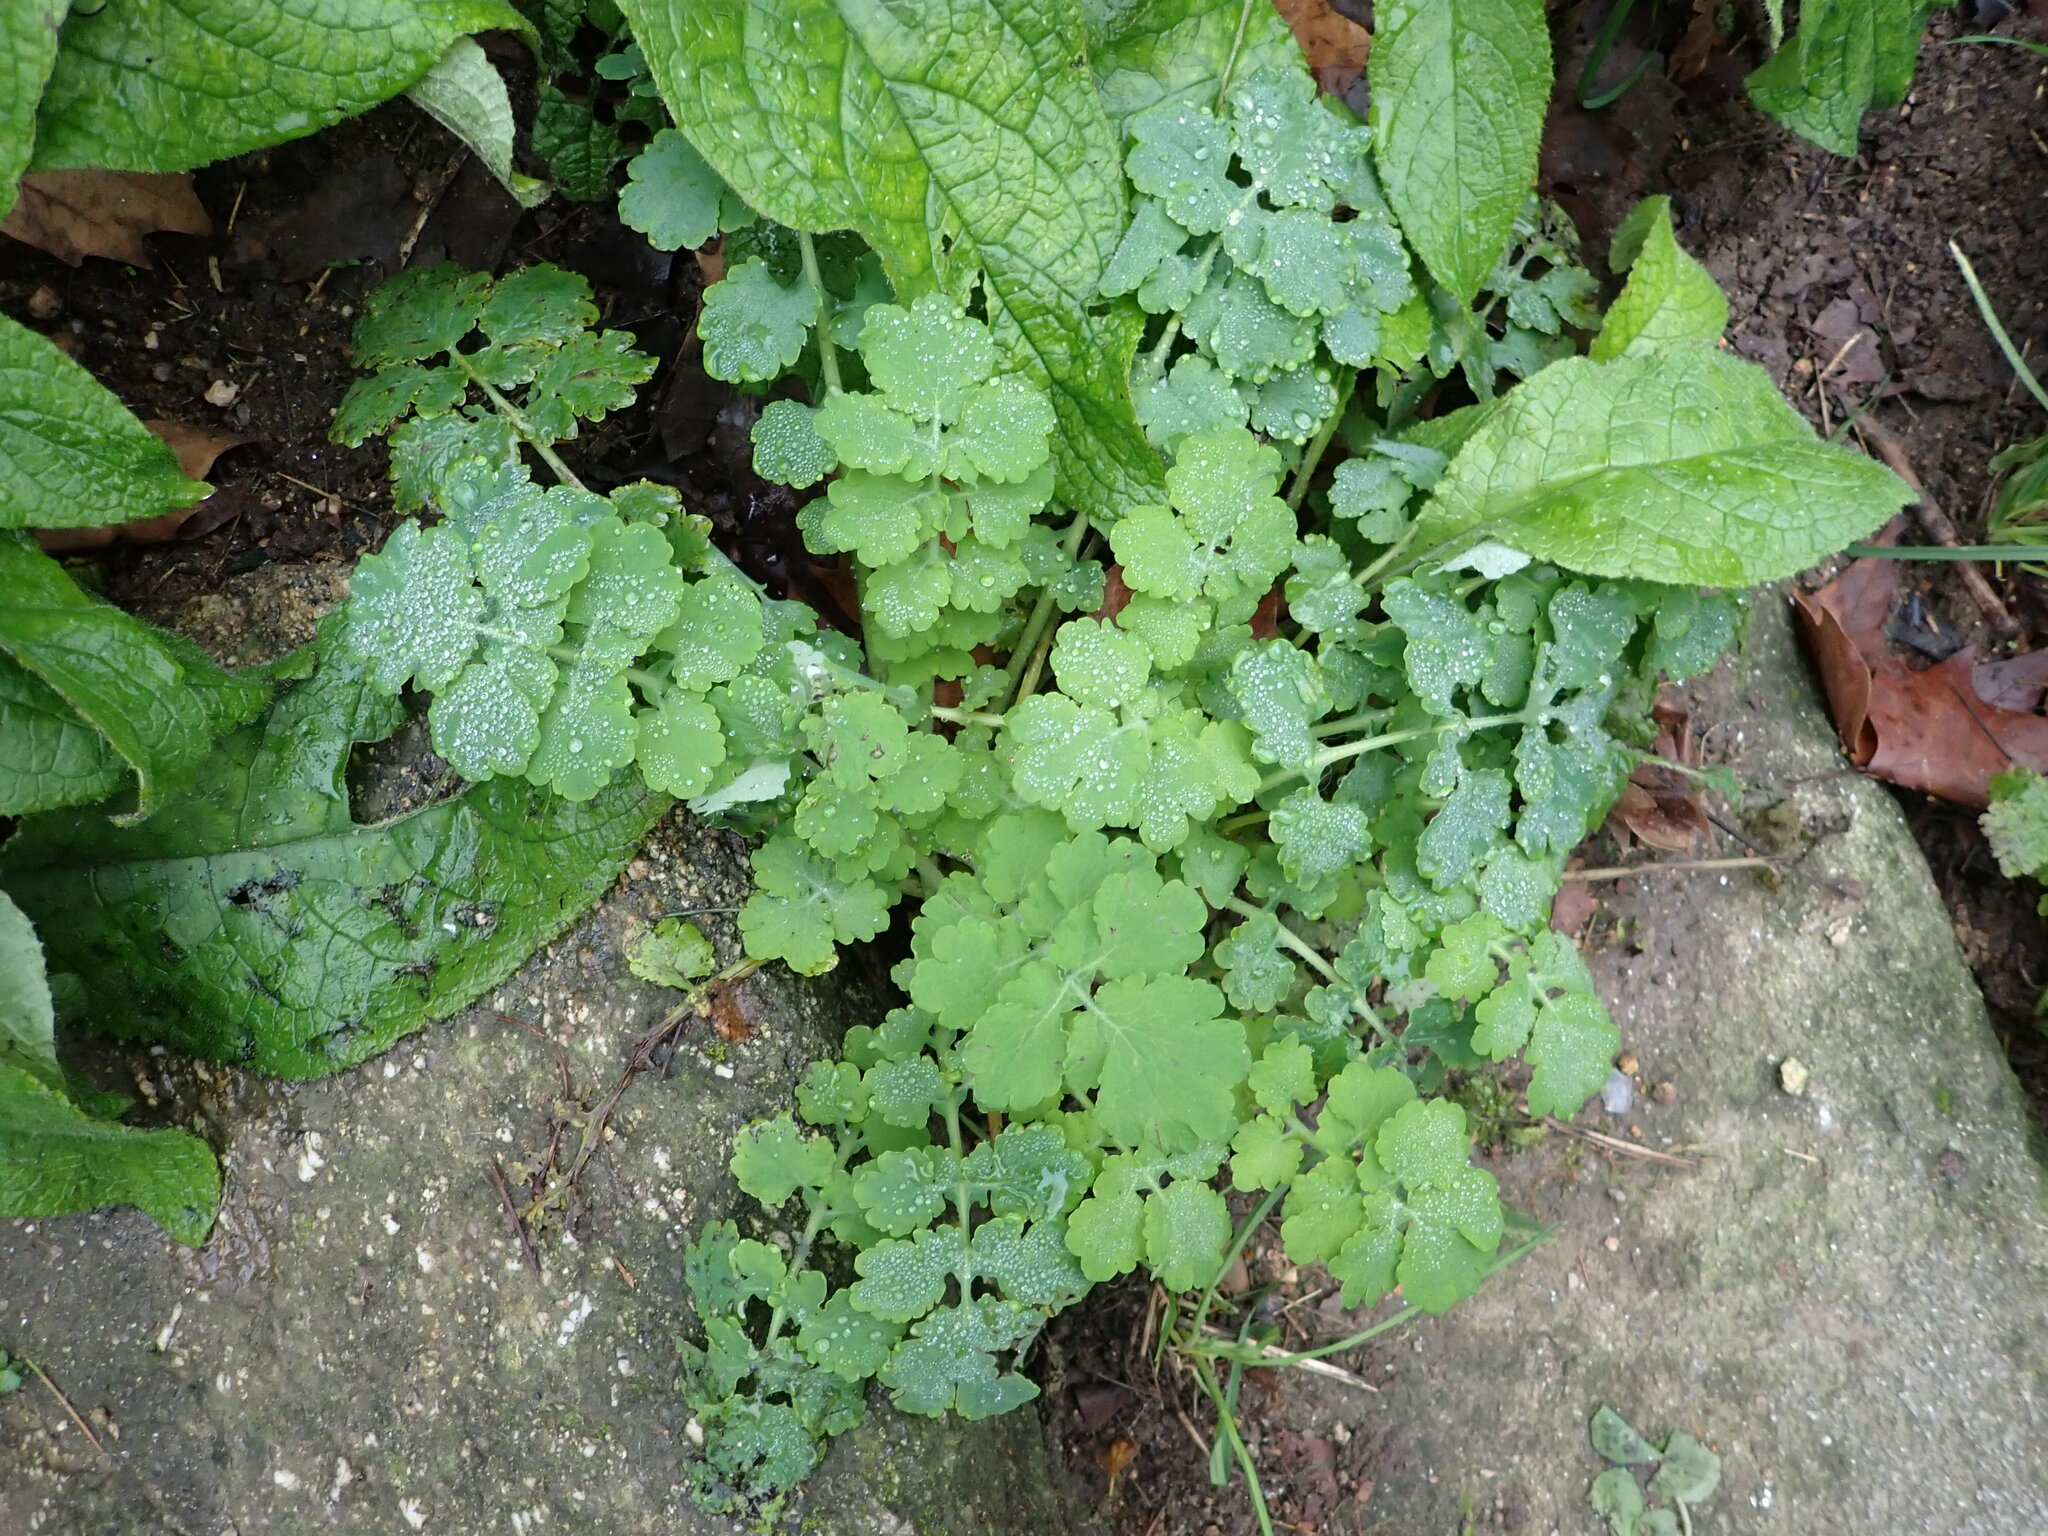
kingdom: Plantae
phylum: Tracheophyta
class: Magnoliopsida
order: Ranunculales
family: Papaveraceae
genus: Chelidonium
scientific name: Chelidonium majus
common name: Greater celandine
